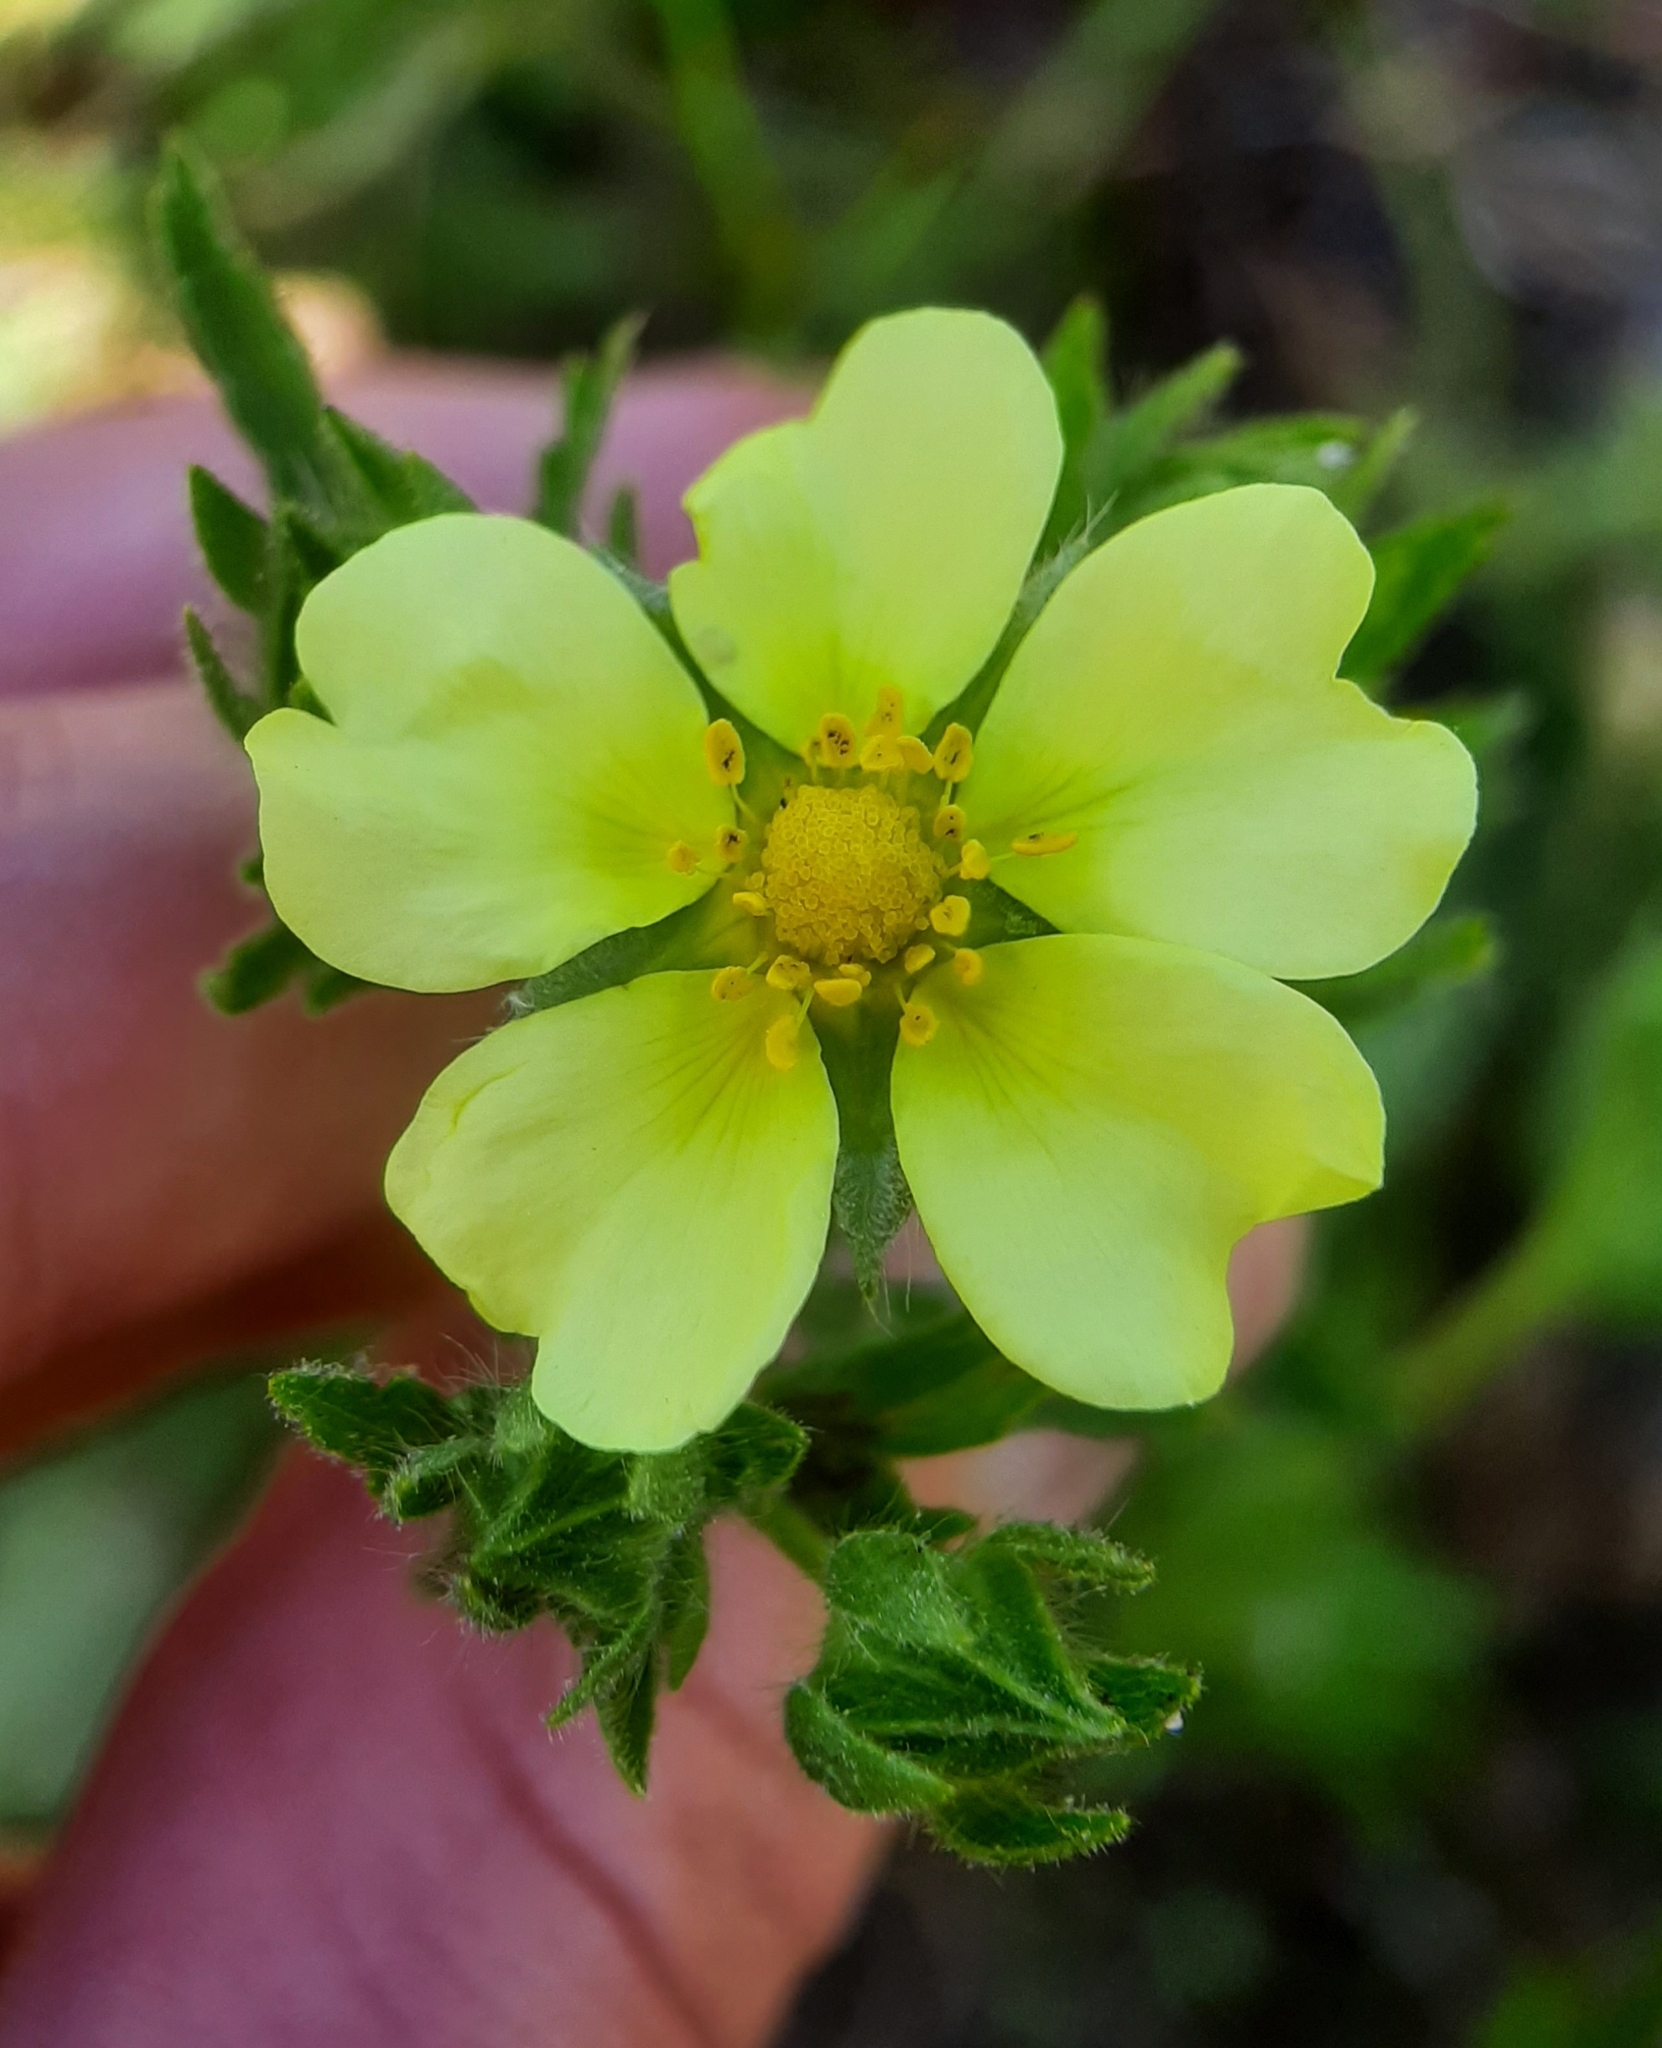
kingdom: Plantae
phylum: Tracheophyta
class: Magnoliopsida
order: Rosales
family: Rosaceae
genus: Potentilla
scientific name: Potentilla recta
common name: Sulphur cinquefoil
